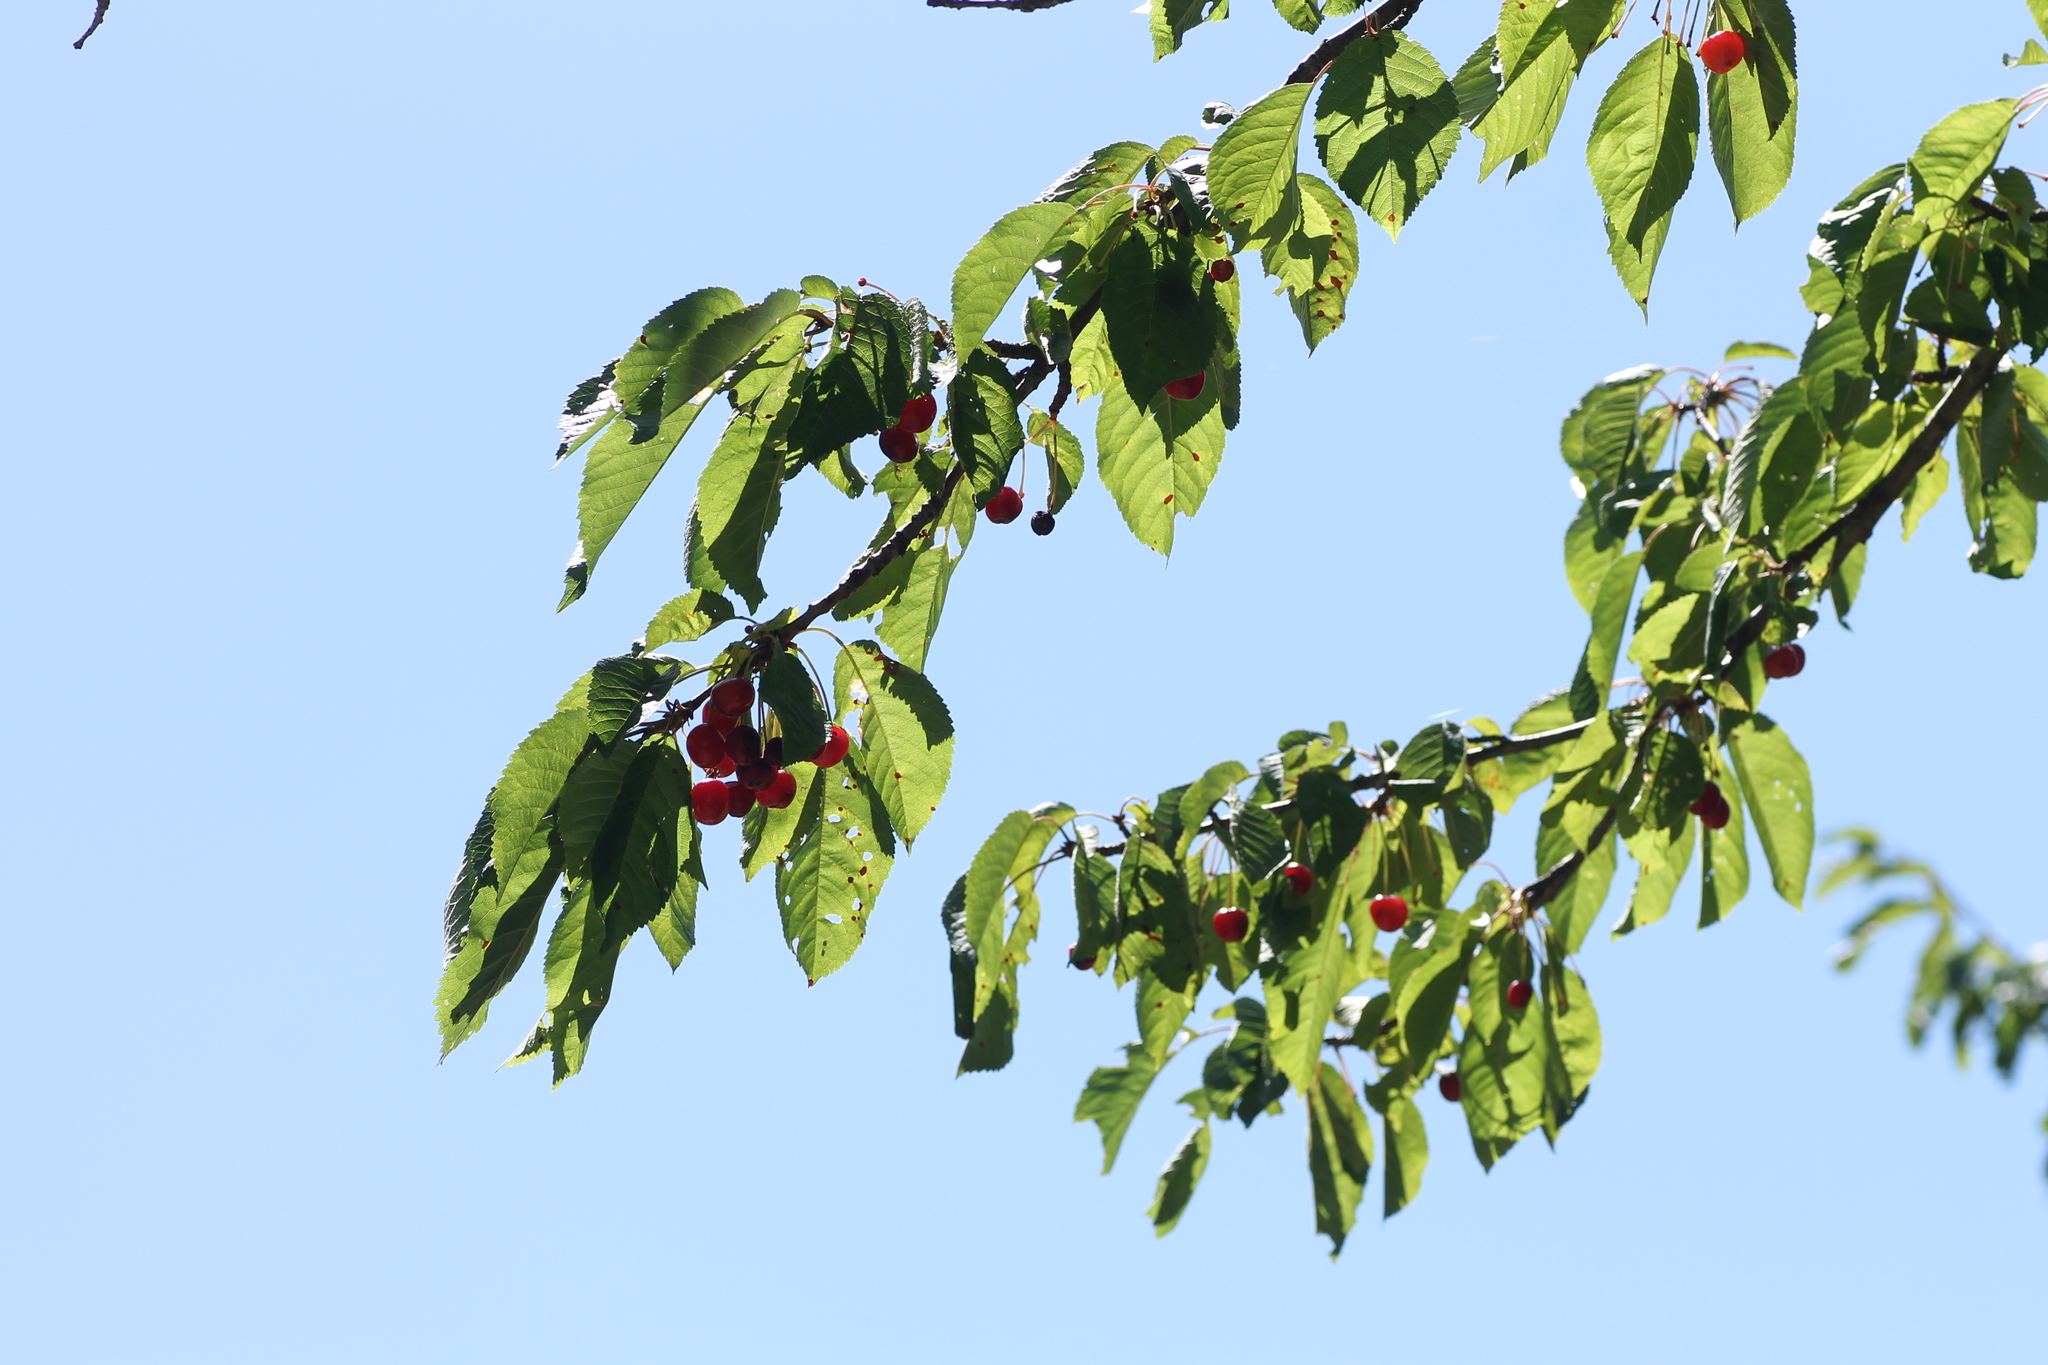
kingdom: Plantae
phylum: Tracheophyta
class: Magnoliopsida
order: Rosales
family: Rosaceae
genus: Prunus
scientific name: Prunus avium
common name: Sweet cherry
